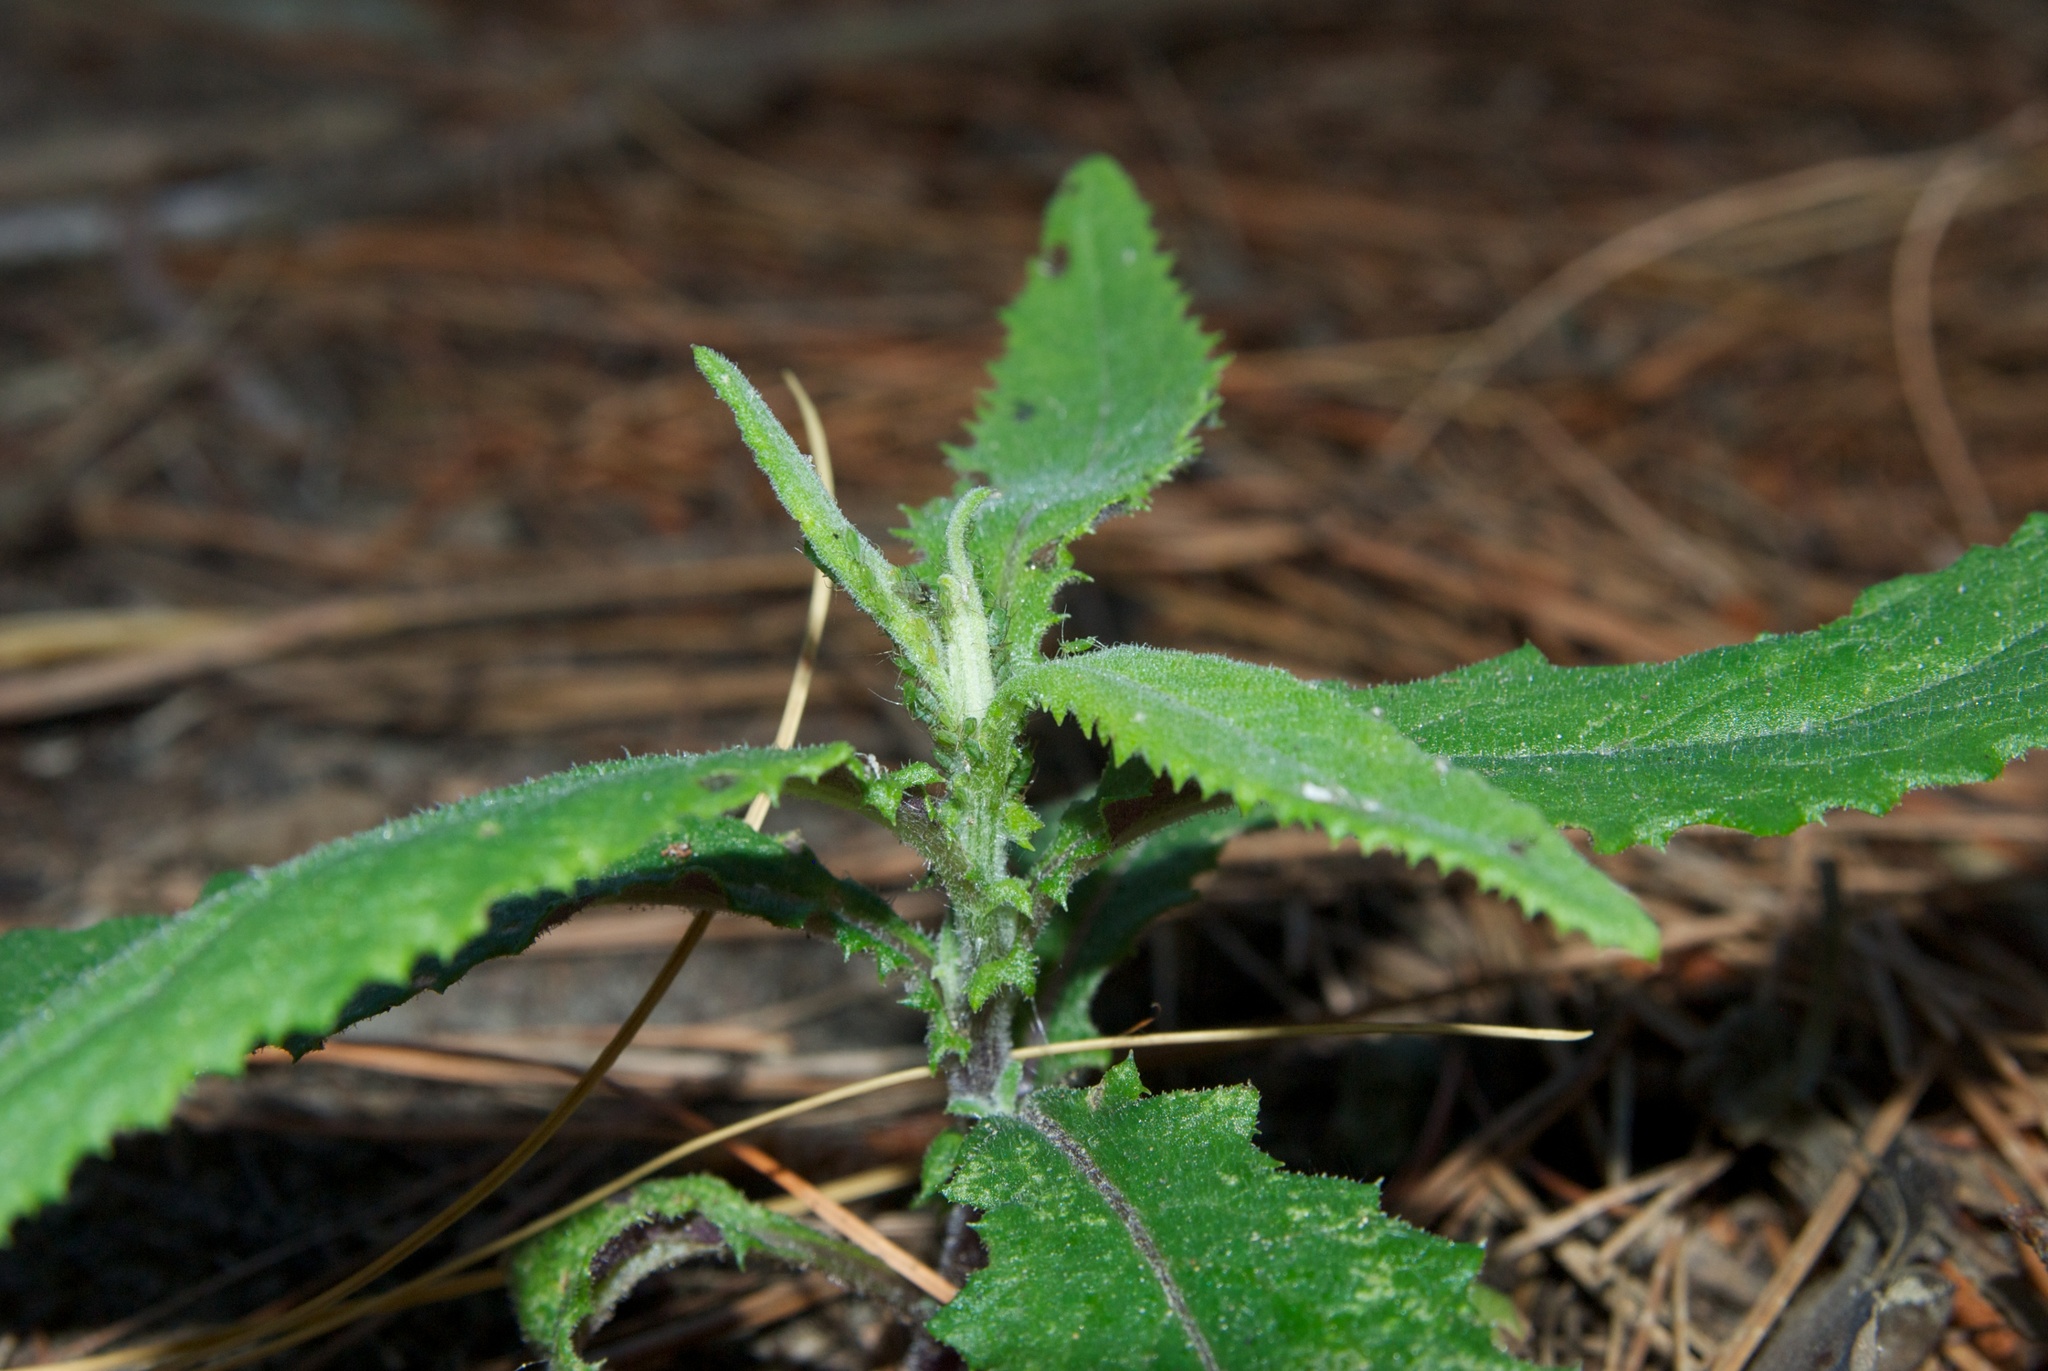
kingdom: Plantae
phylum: Tracheophyta
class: Magnoliopsida
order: Asterales
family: Asteraceae
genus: Senecio
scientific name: Senecio minimus
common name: Toothed fireweed
